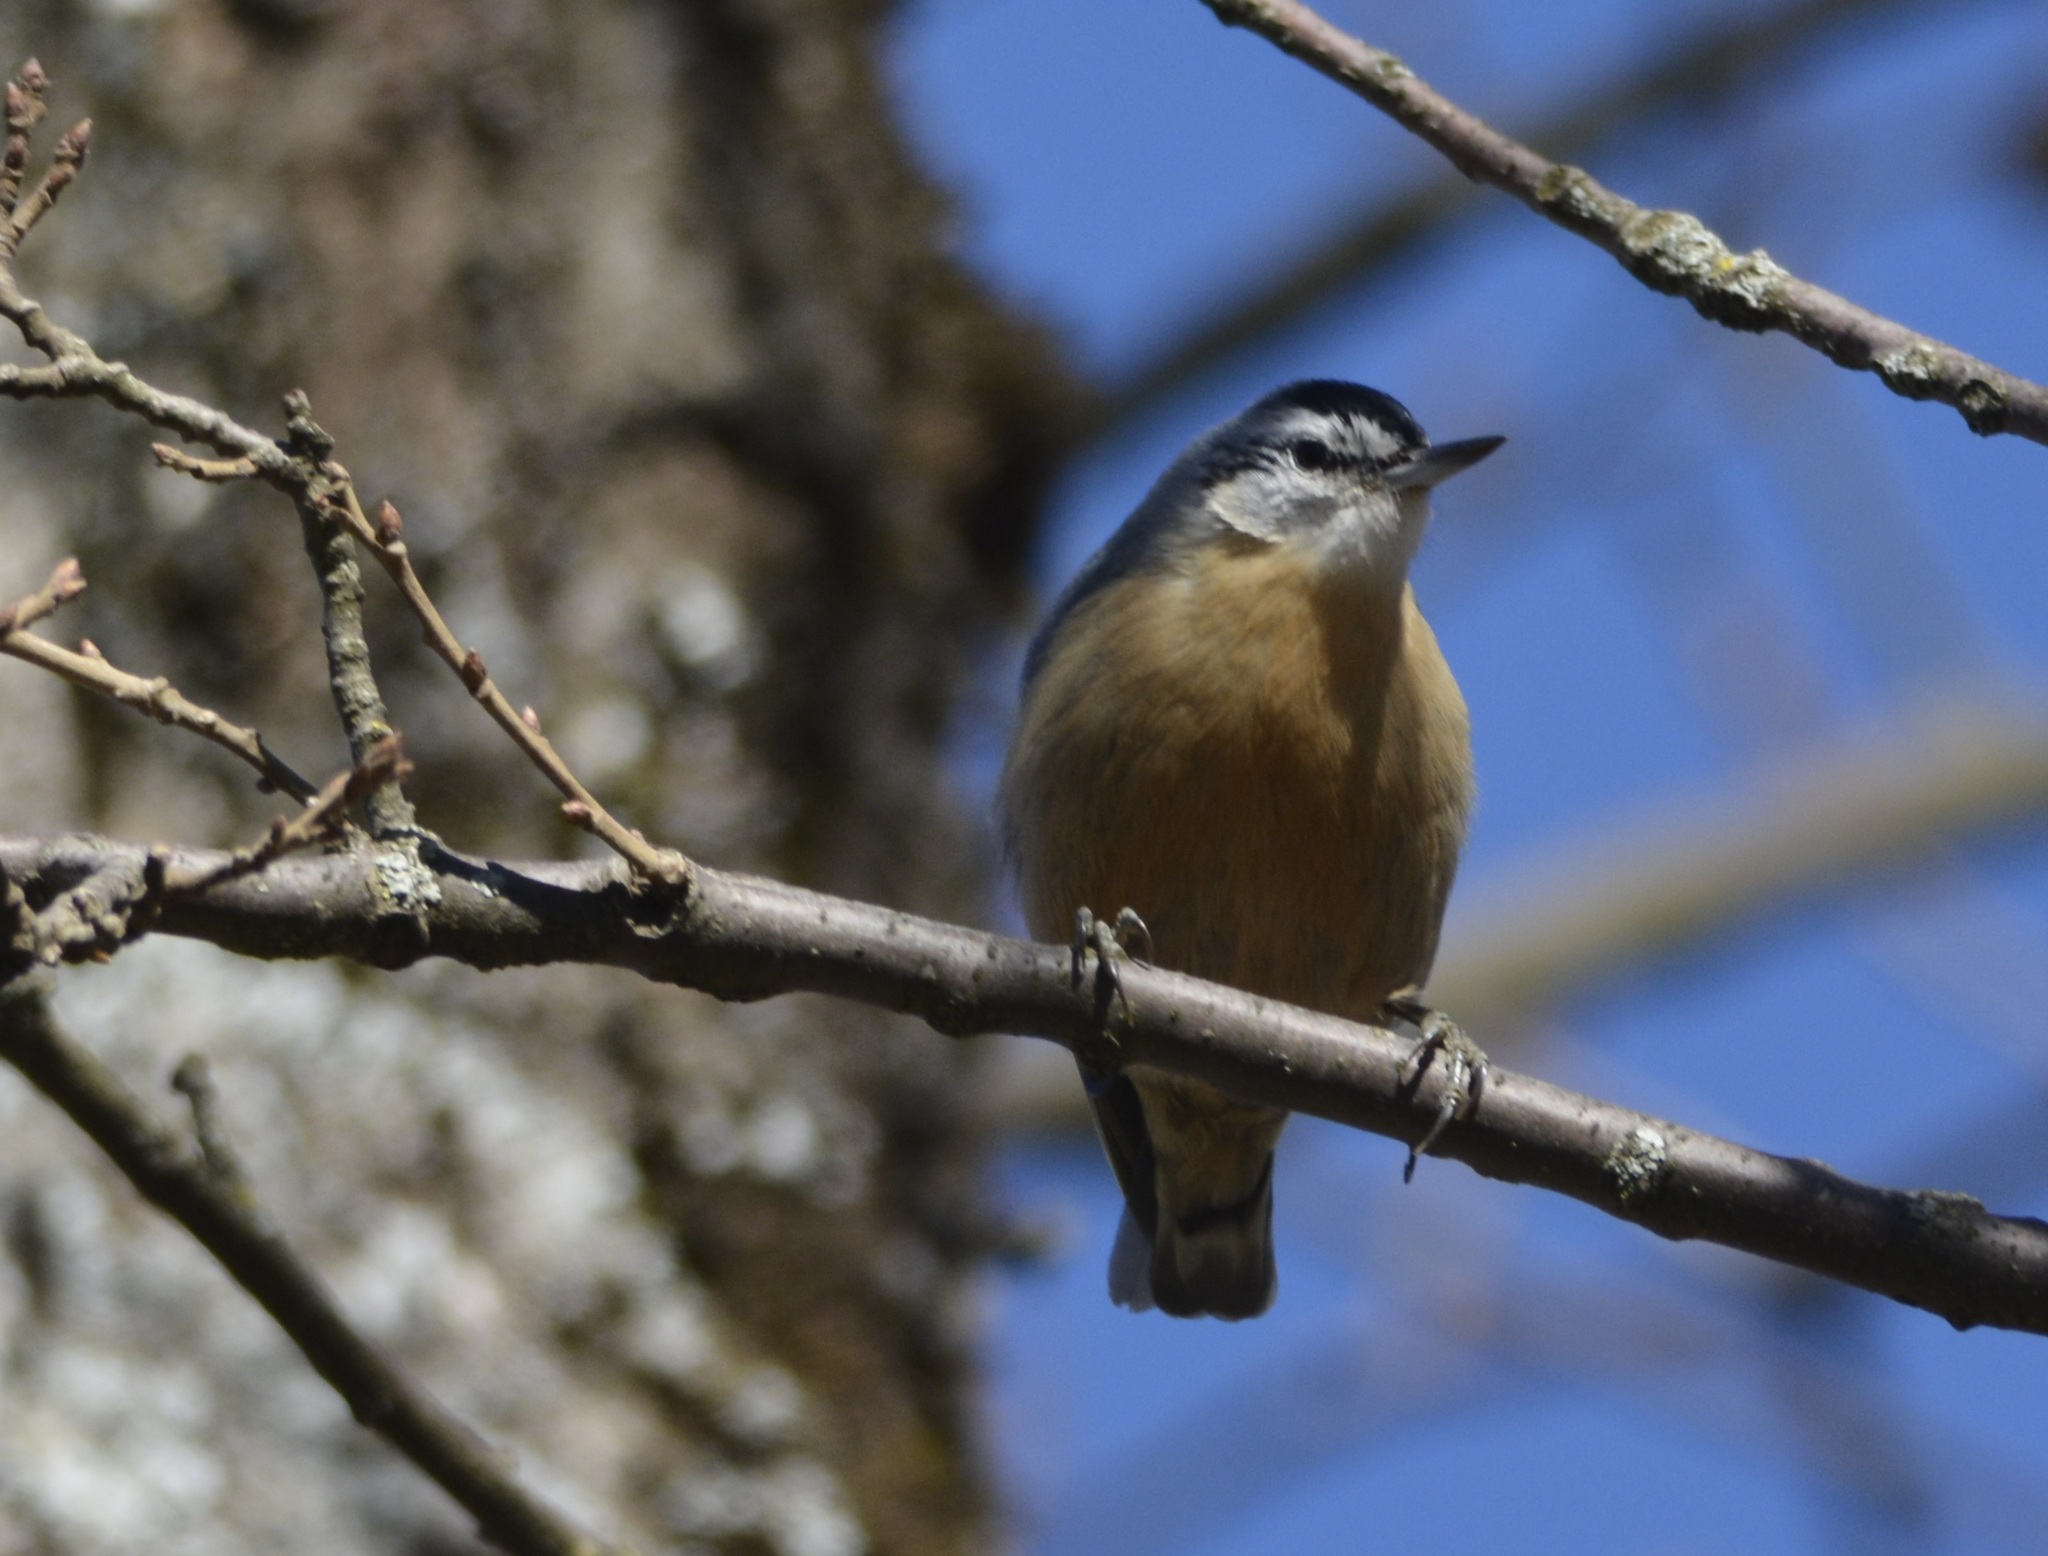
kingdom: Animalia
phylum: Chordata
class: Aves
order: Passeriformes
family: Sittidae
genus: Sitta
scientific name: Sitta ledanti
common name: Algerian nuthatch
